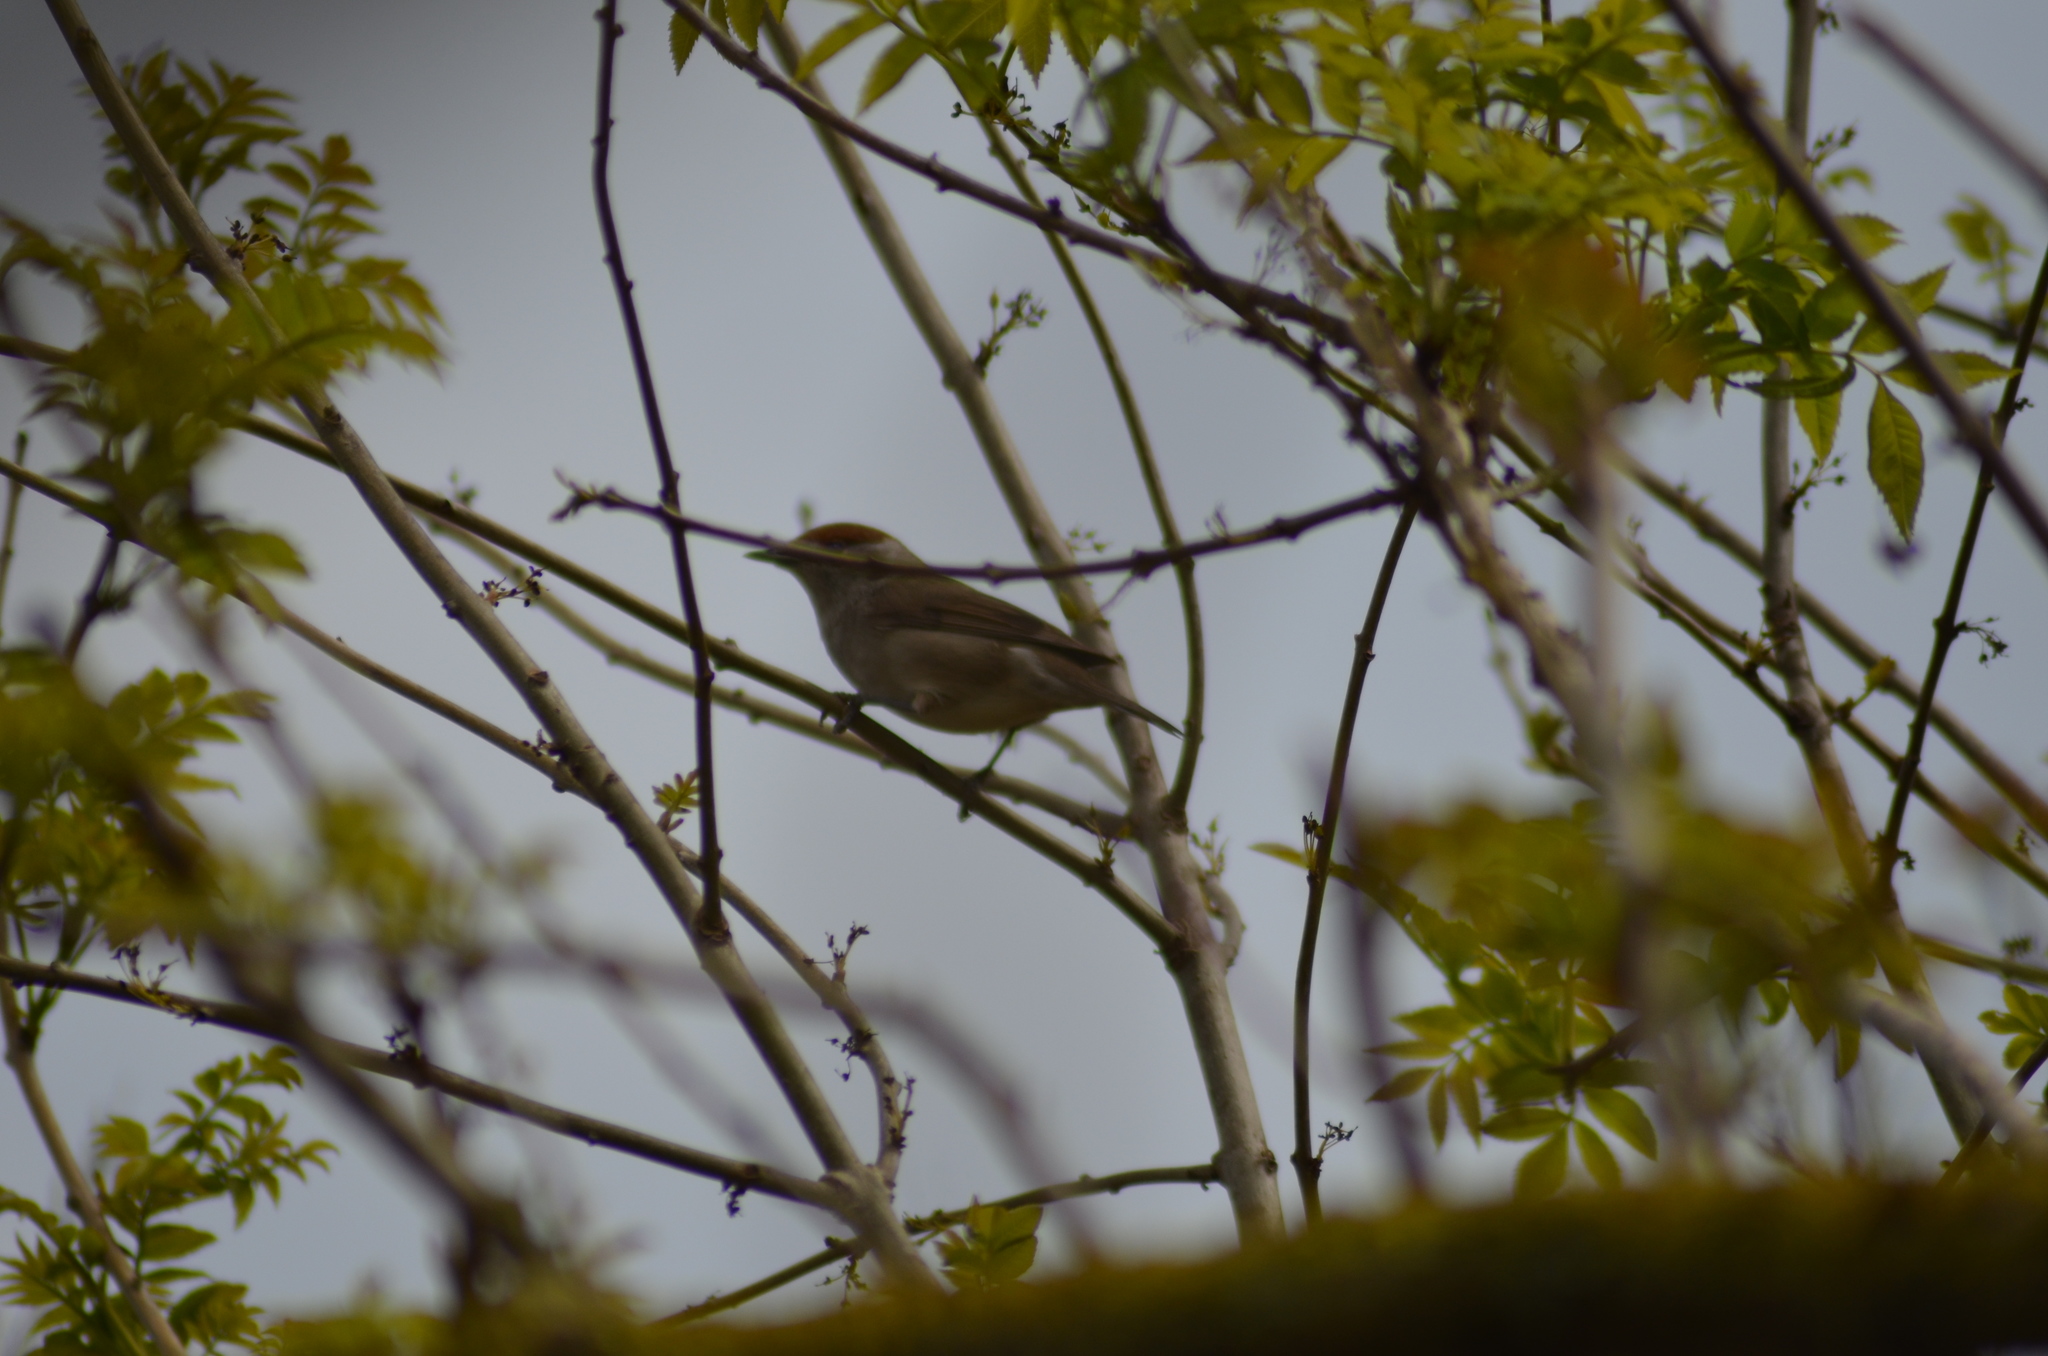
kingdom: Animalia
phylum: Chordata
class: Aves
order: Passeriformes
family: Sylviidae
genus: Sylvia
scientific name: Sylvia atricapilla
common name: Eurasian blackcap
